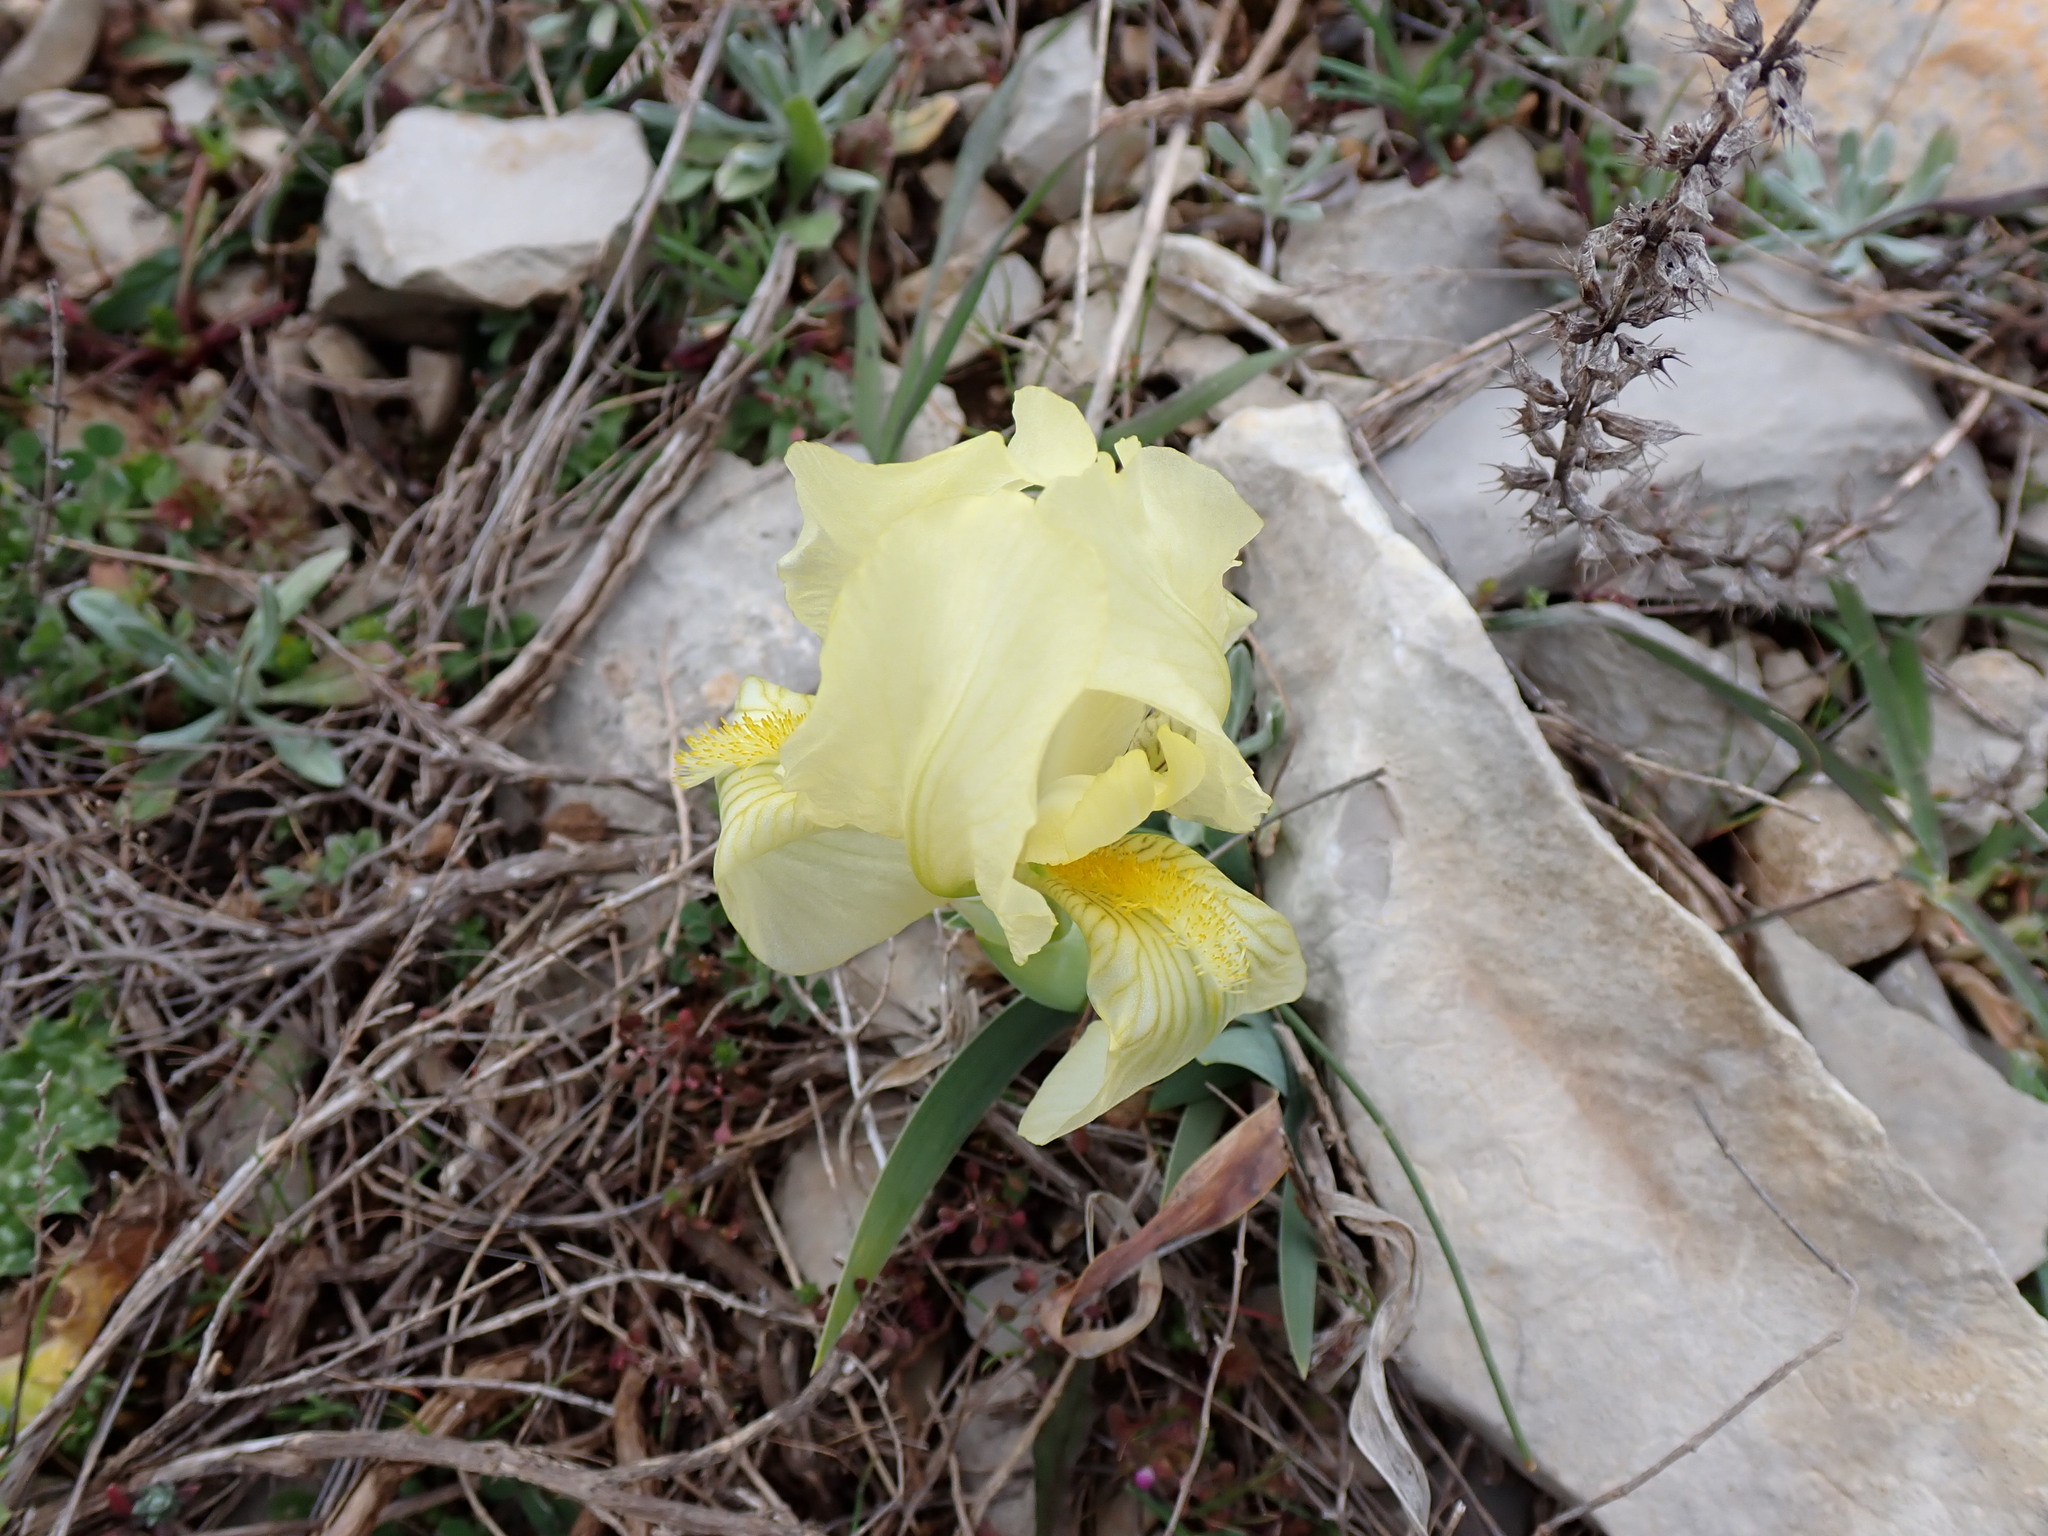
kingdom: Plantae
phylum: Tracheophyta
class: Liliopsida
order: Asparagales
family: Iridaceae
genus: Iris
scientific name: Iris lutescens
